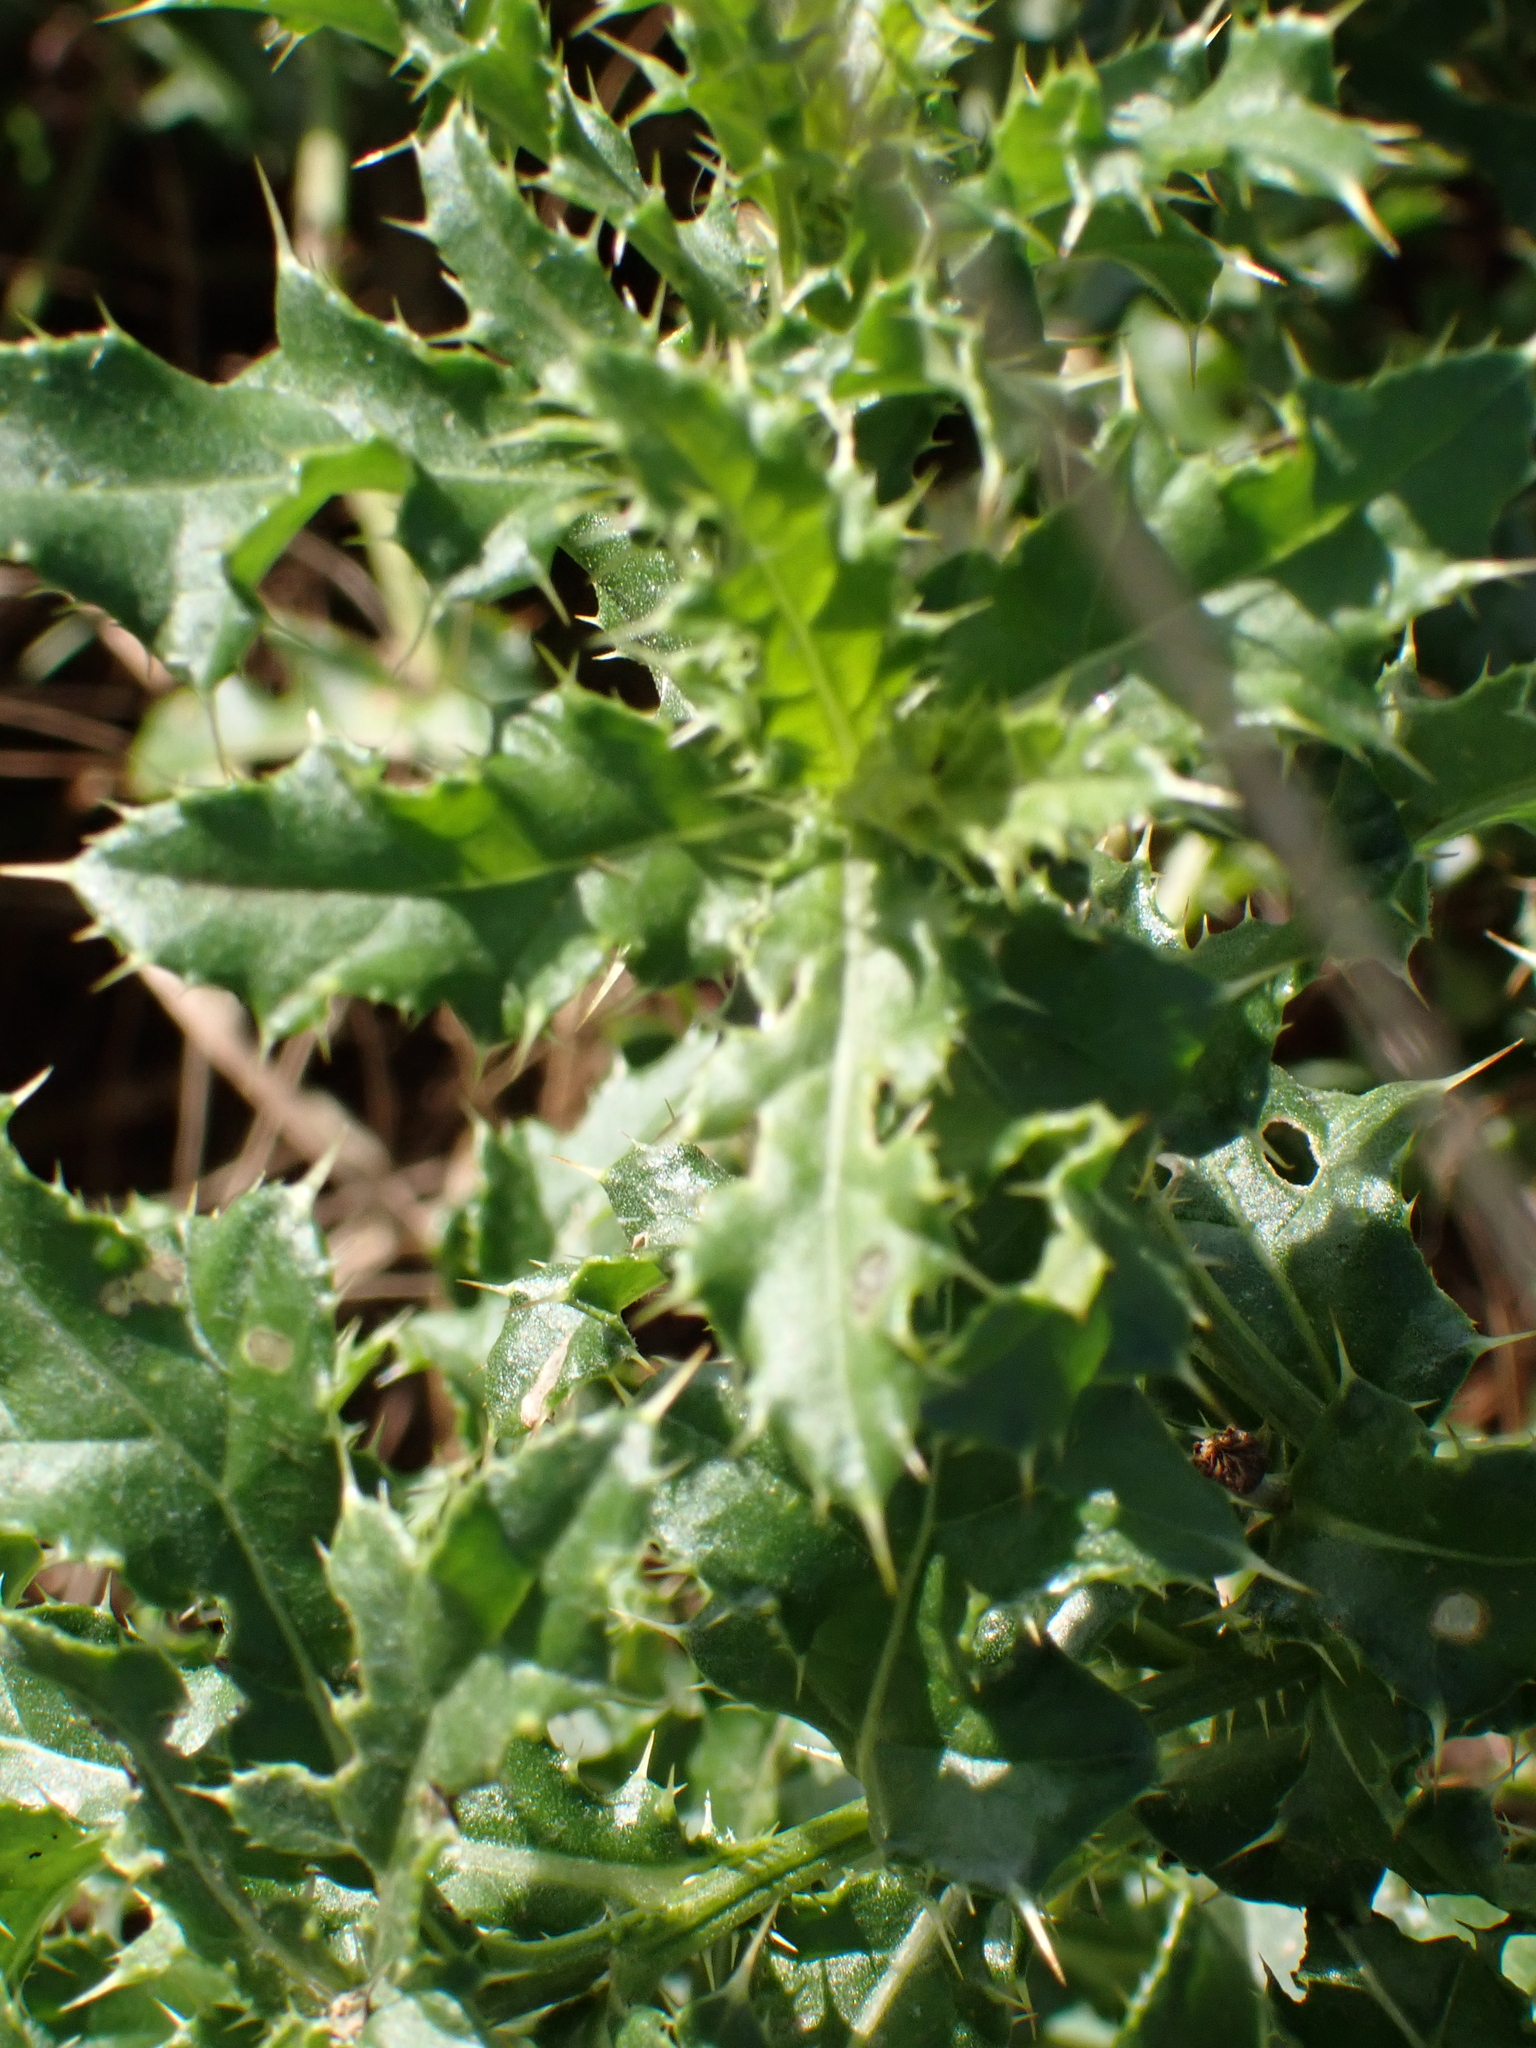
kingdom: Plantae
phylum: Tracheophyta
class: Magnoliopsida
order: Asterales
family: Asteraceae
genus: Cirsium
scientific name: Cirsium arvense
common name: Creeping thistle
